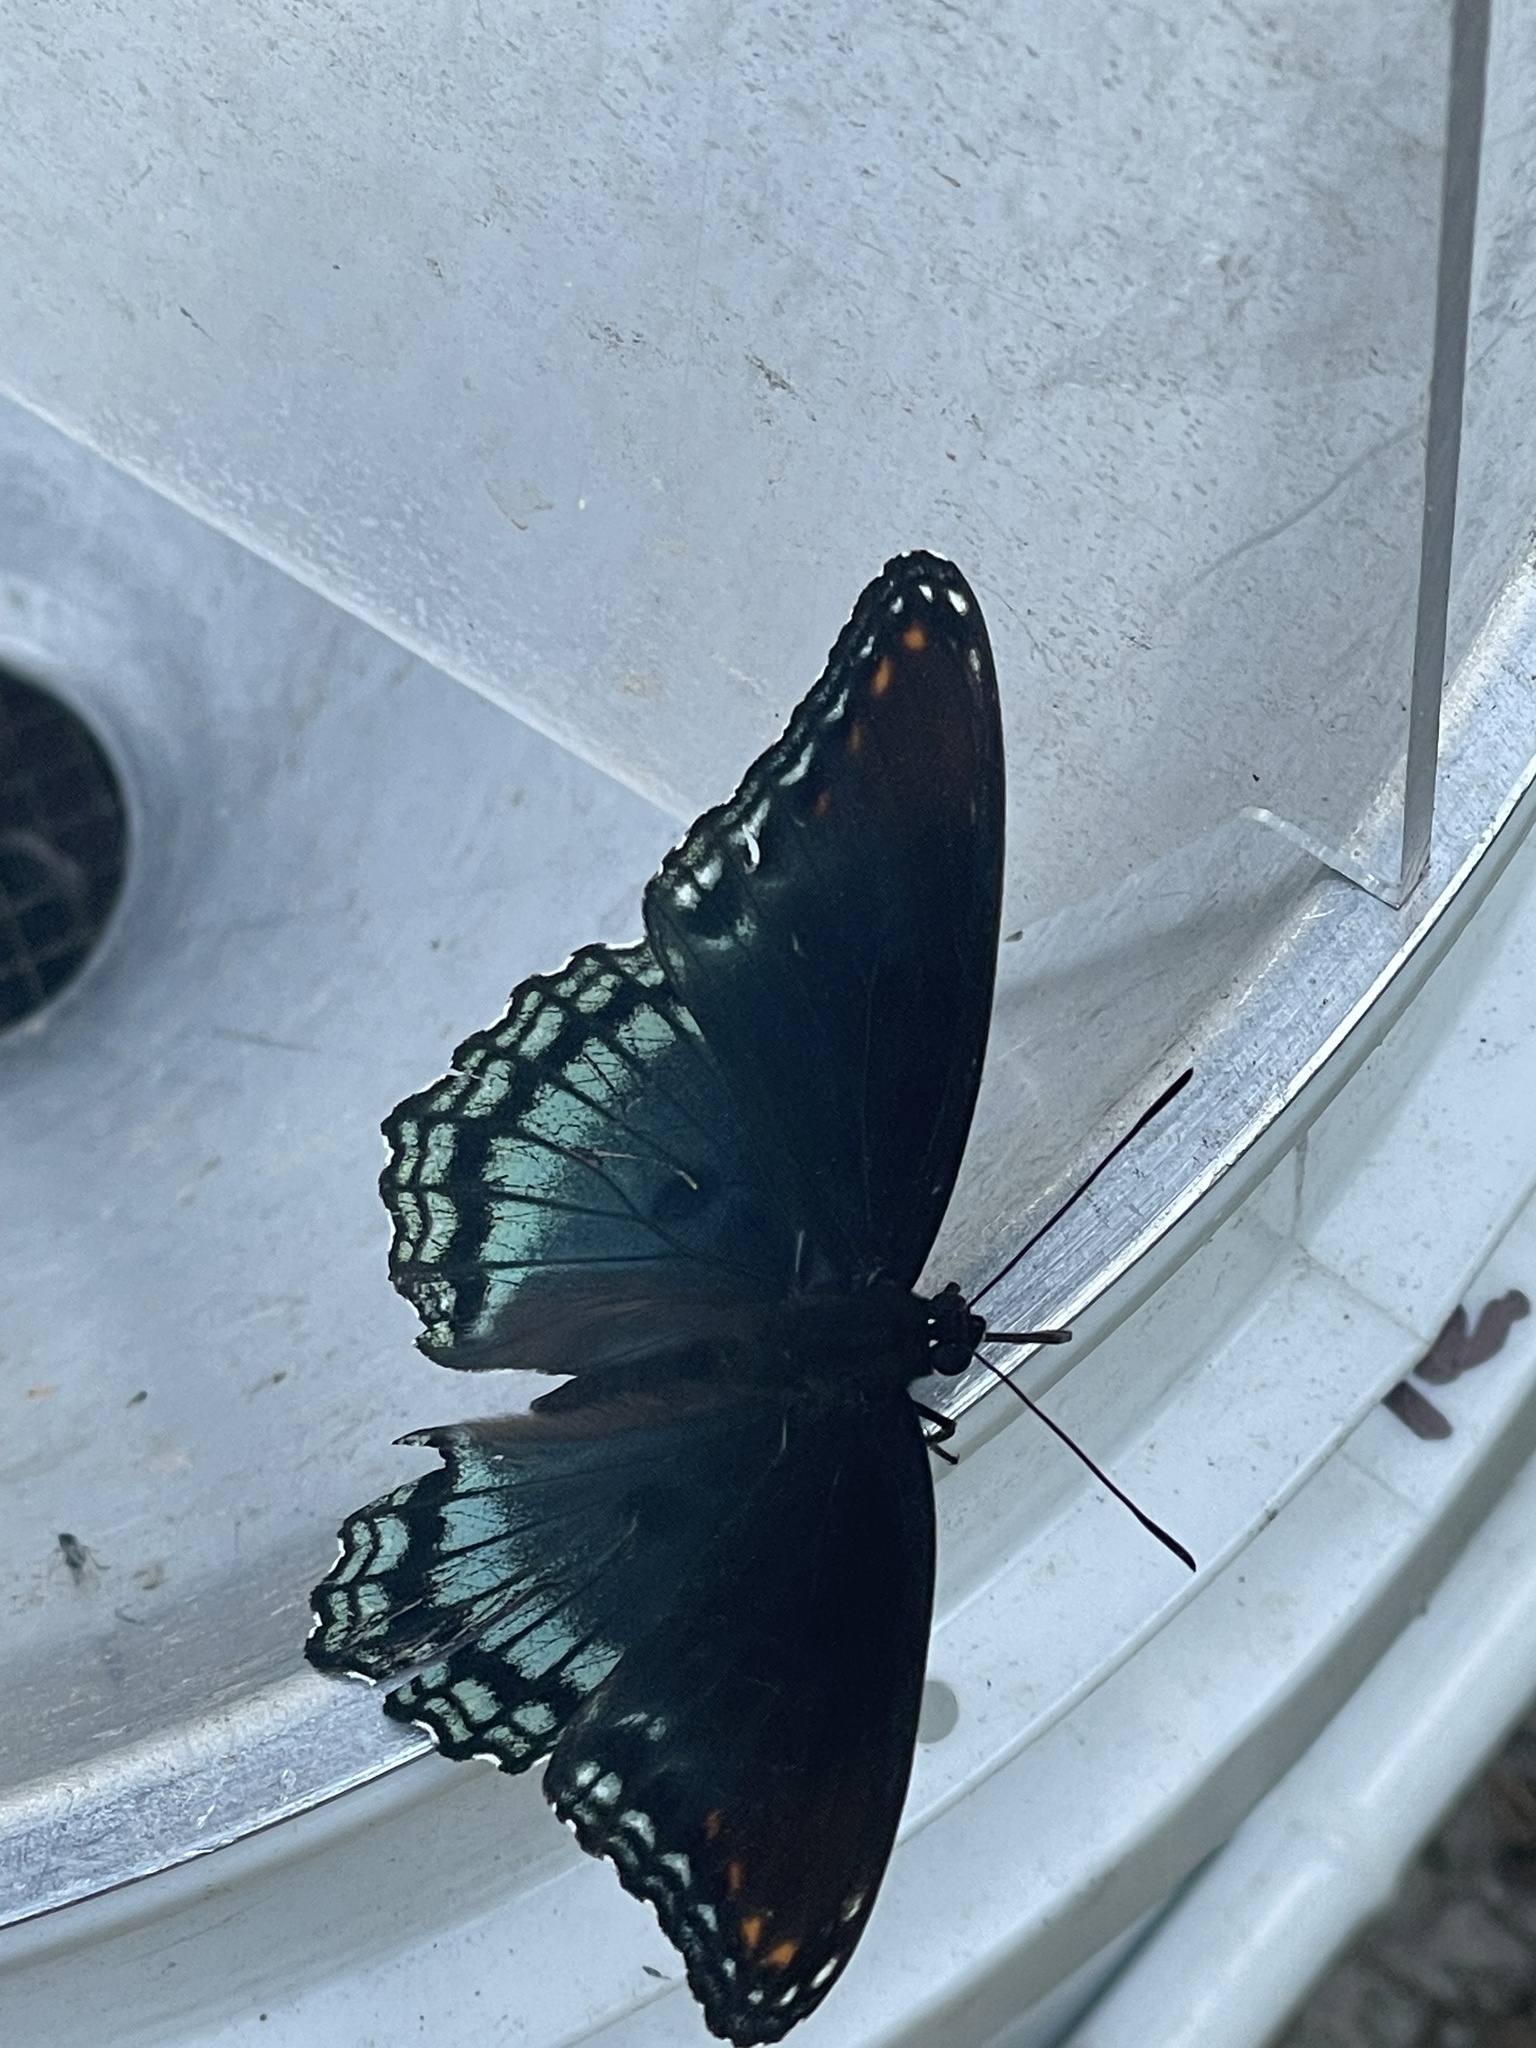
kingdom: Animalia
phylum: Arthropoda
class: Insecta
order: Lepidoptera
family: Nymphalidae
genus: Limenitis
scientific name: Limenitis arthemis
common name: Red-spotted admiral
